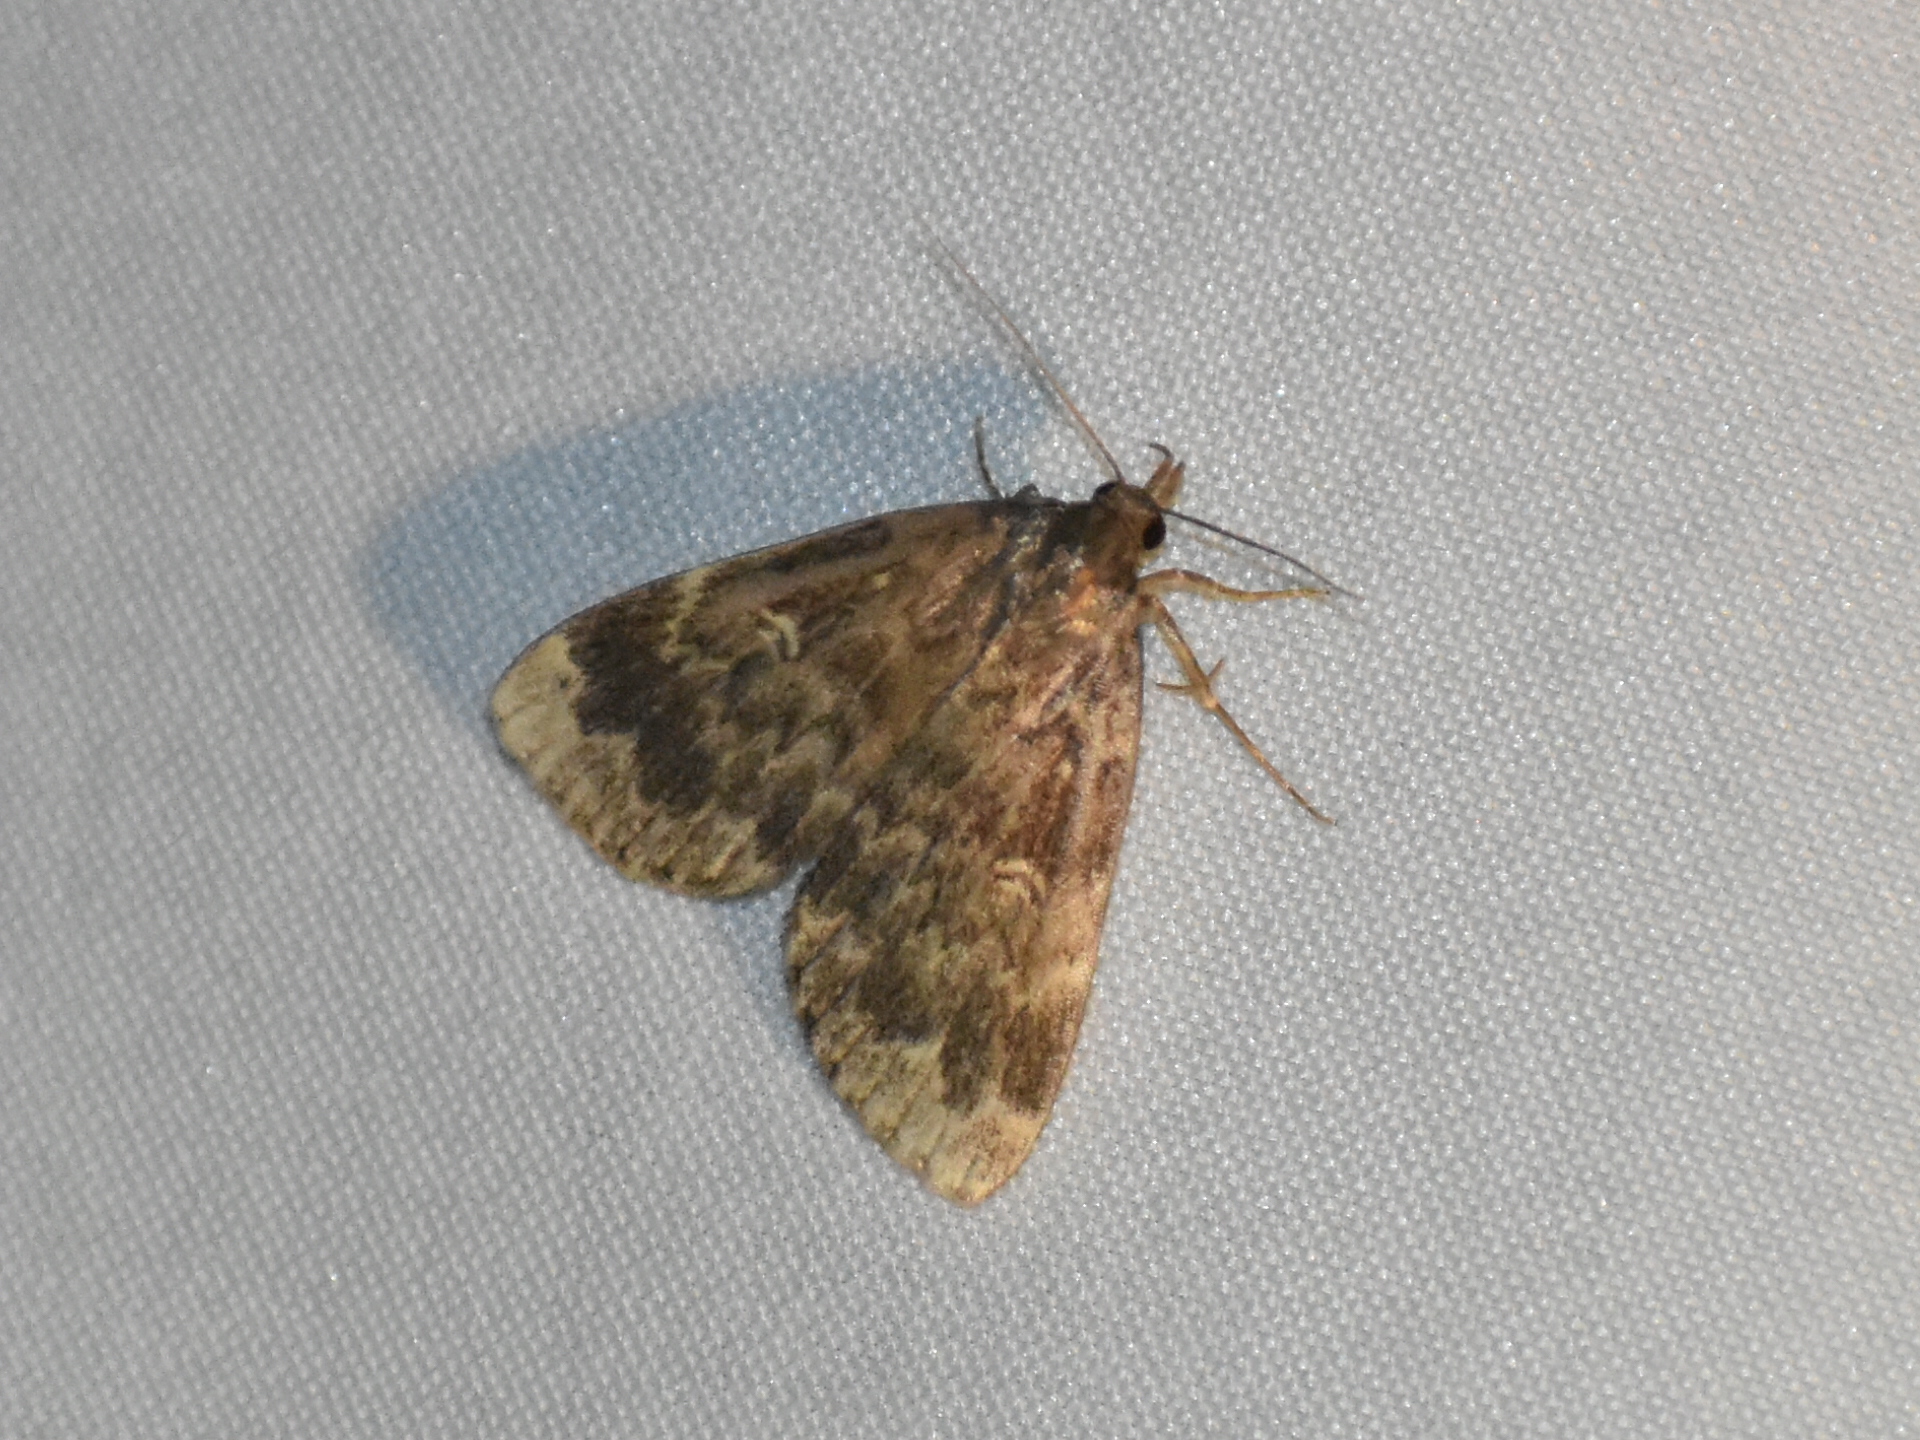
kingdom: Animalia
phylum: Arthropoda
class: Insecta
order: Lepidoptera
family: Erebidae
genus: Idia
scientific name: Idia lubricalis
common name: Twin-striped tabby
